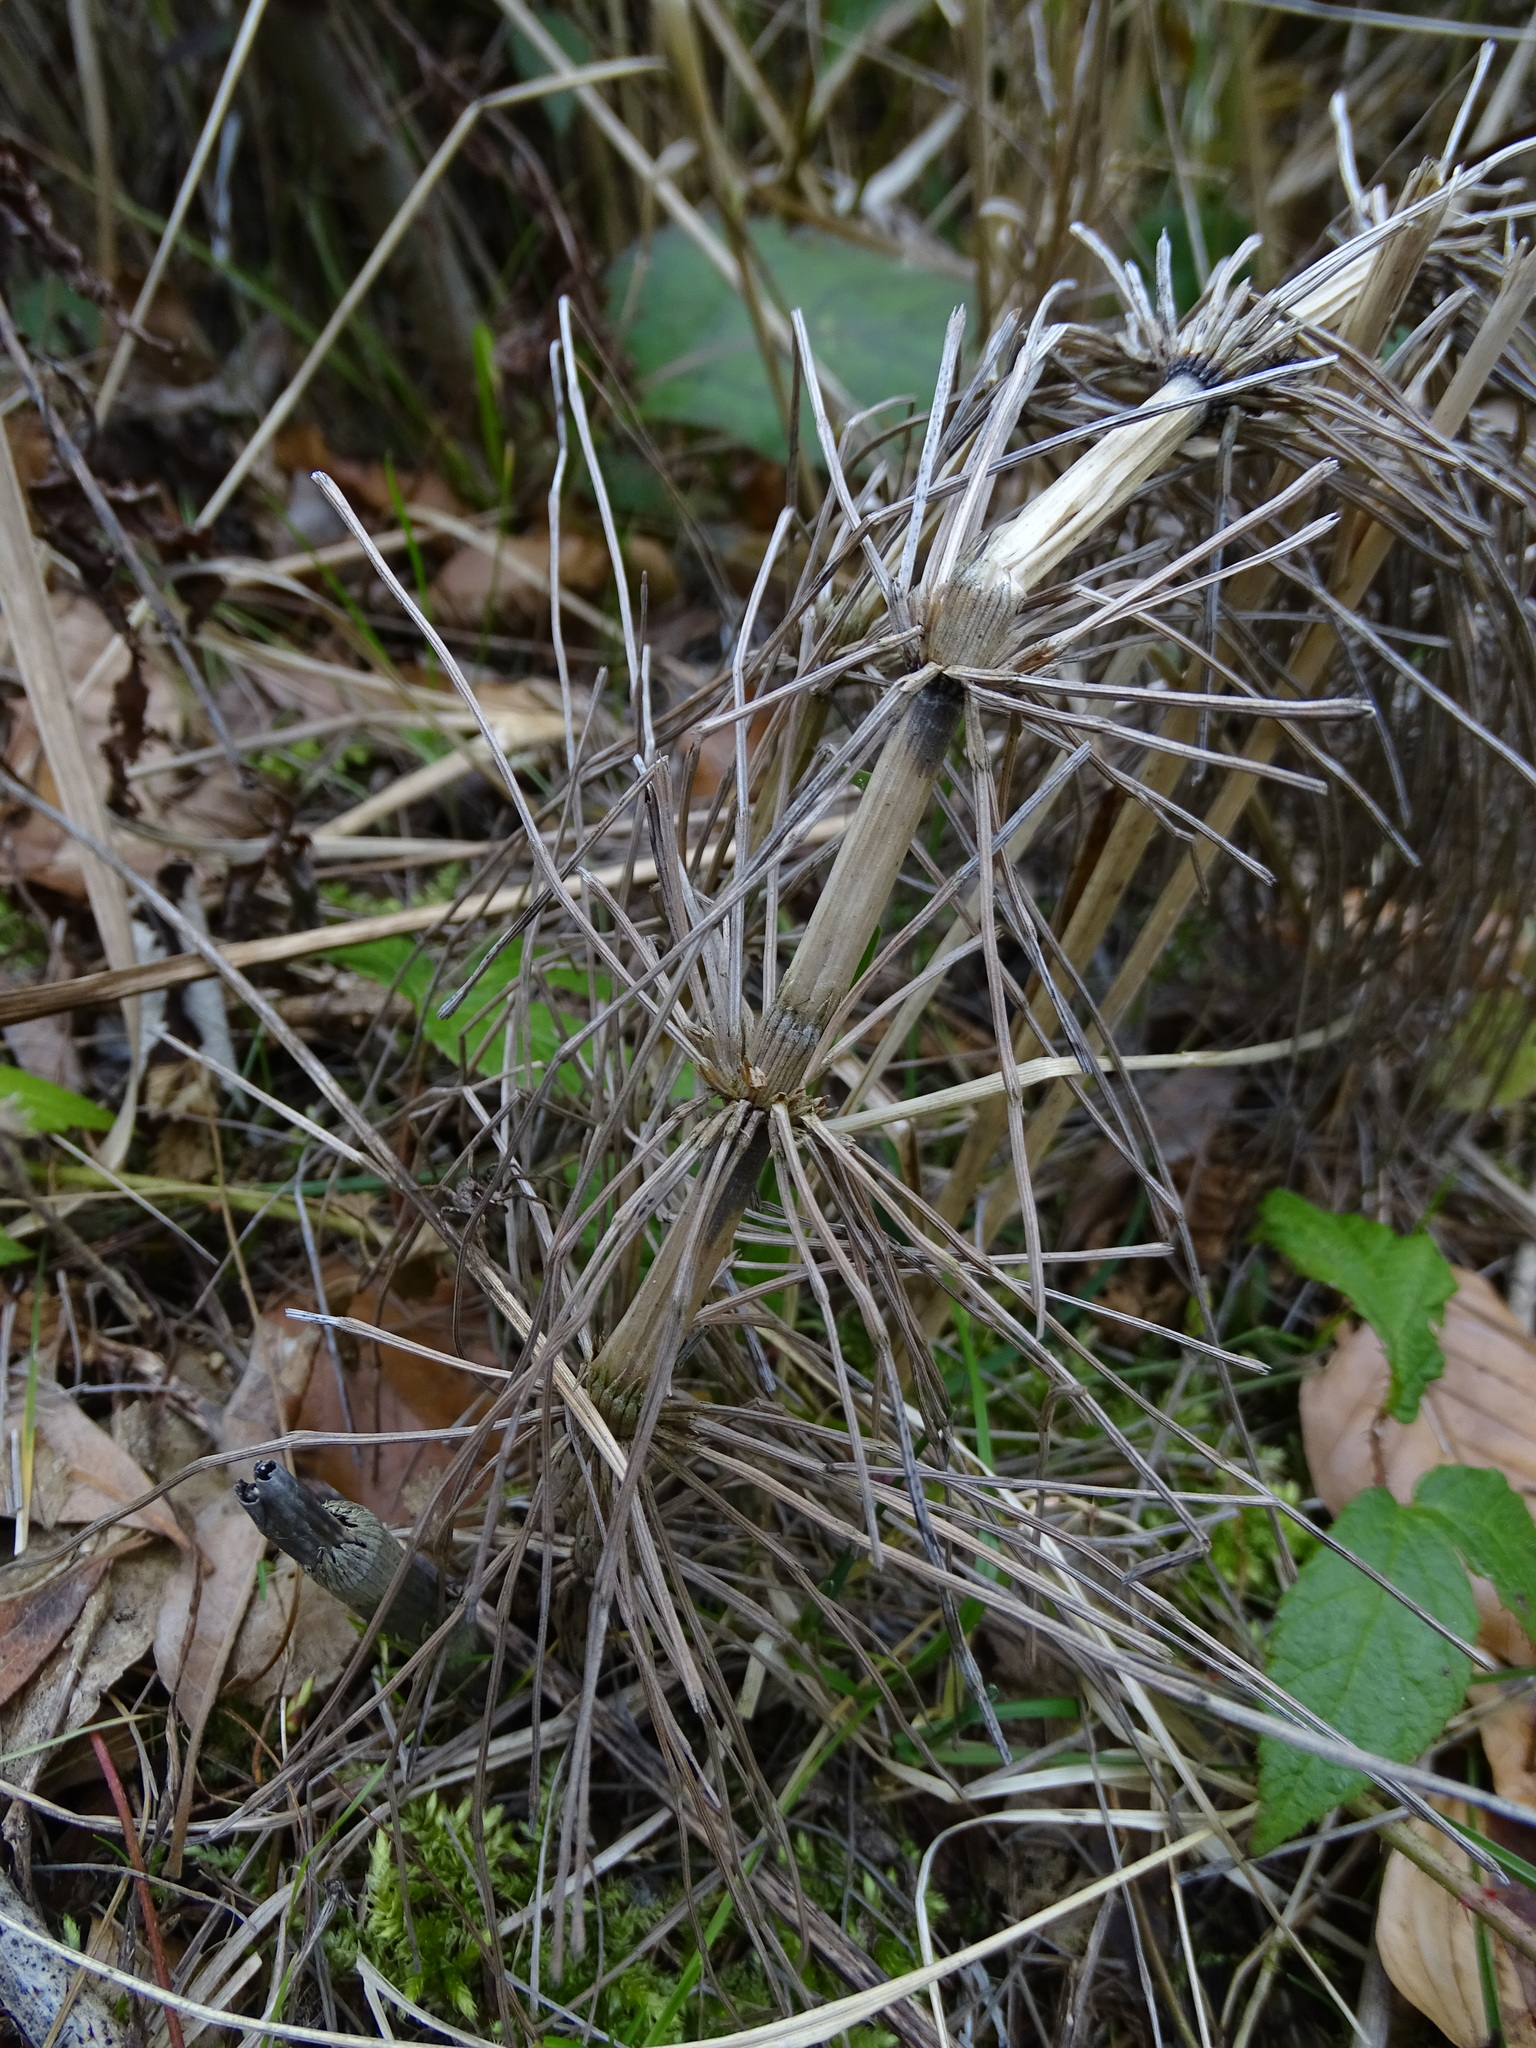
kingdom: Plantae
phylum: Tracheophyta
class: Polypodiopsida
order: Equisetales
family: Equisetaceae
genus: Equisetum
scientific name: Equisetum telmateia
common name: Great horsetail
